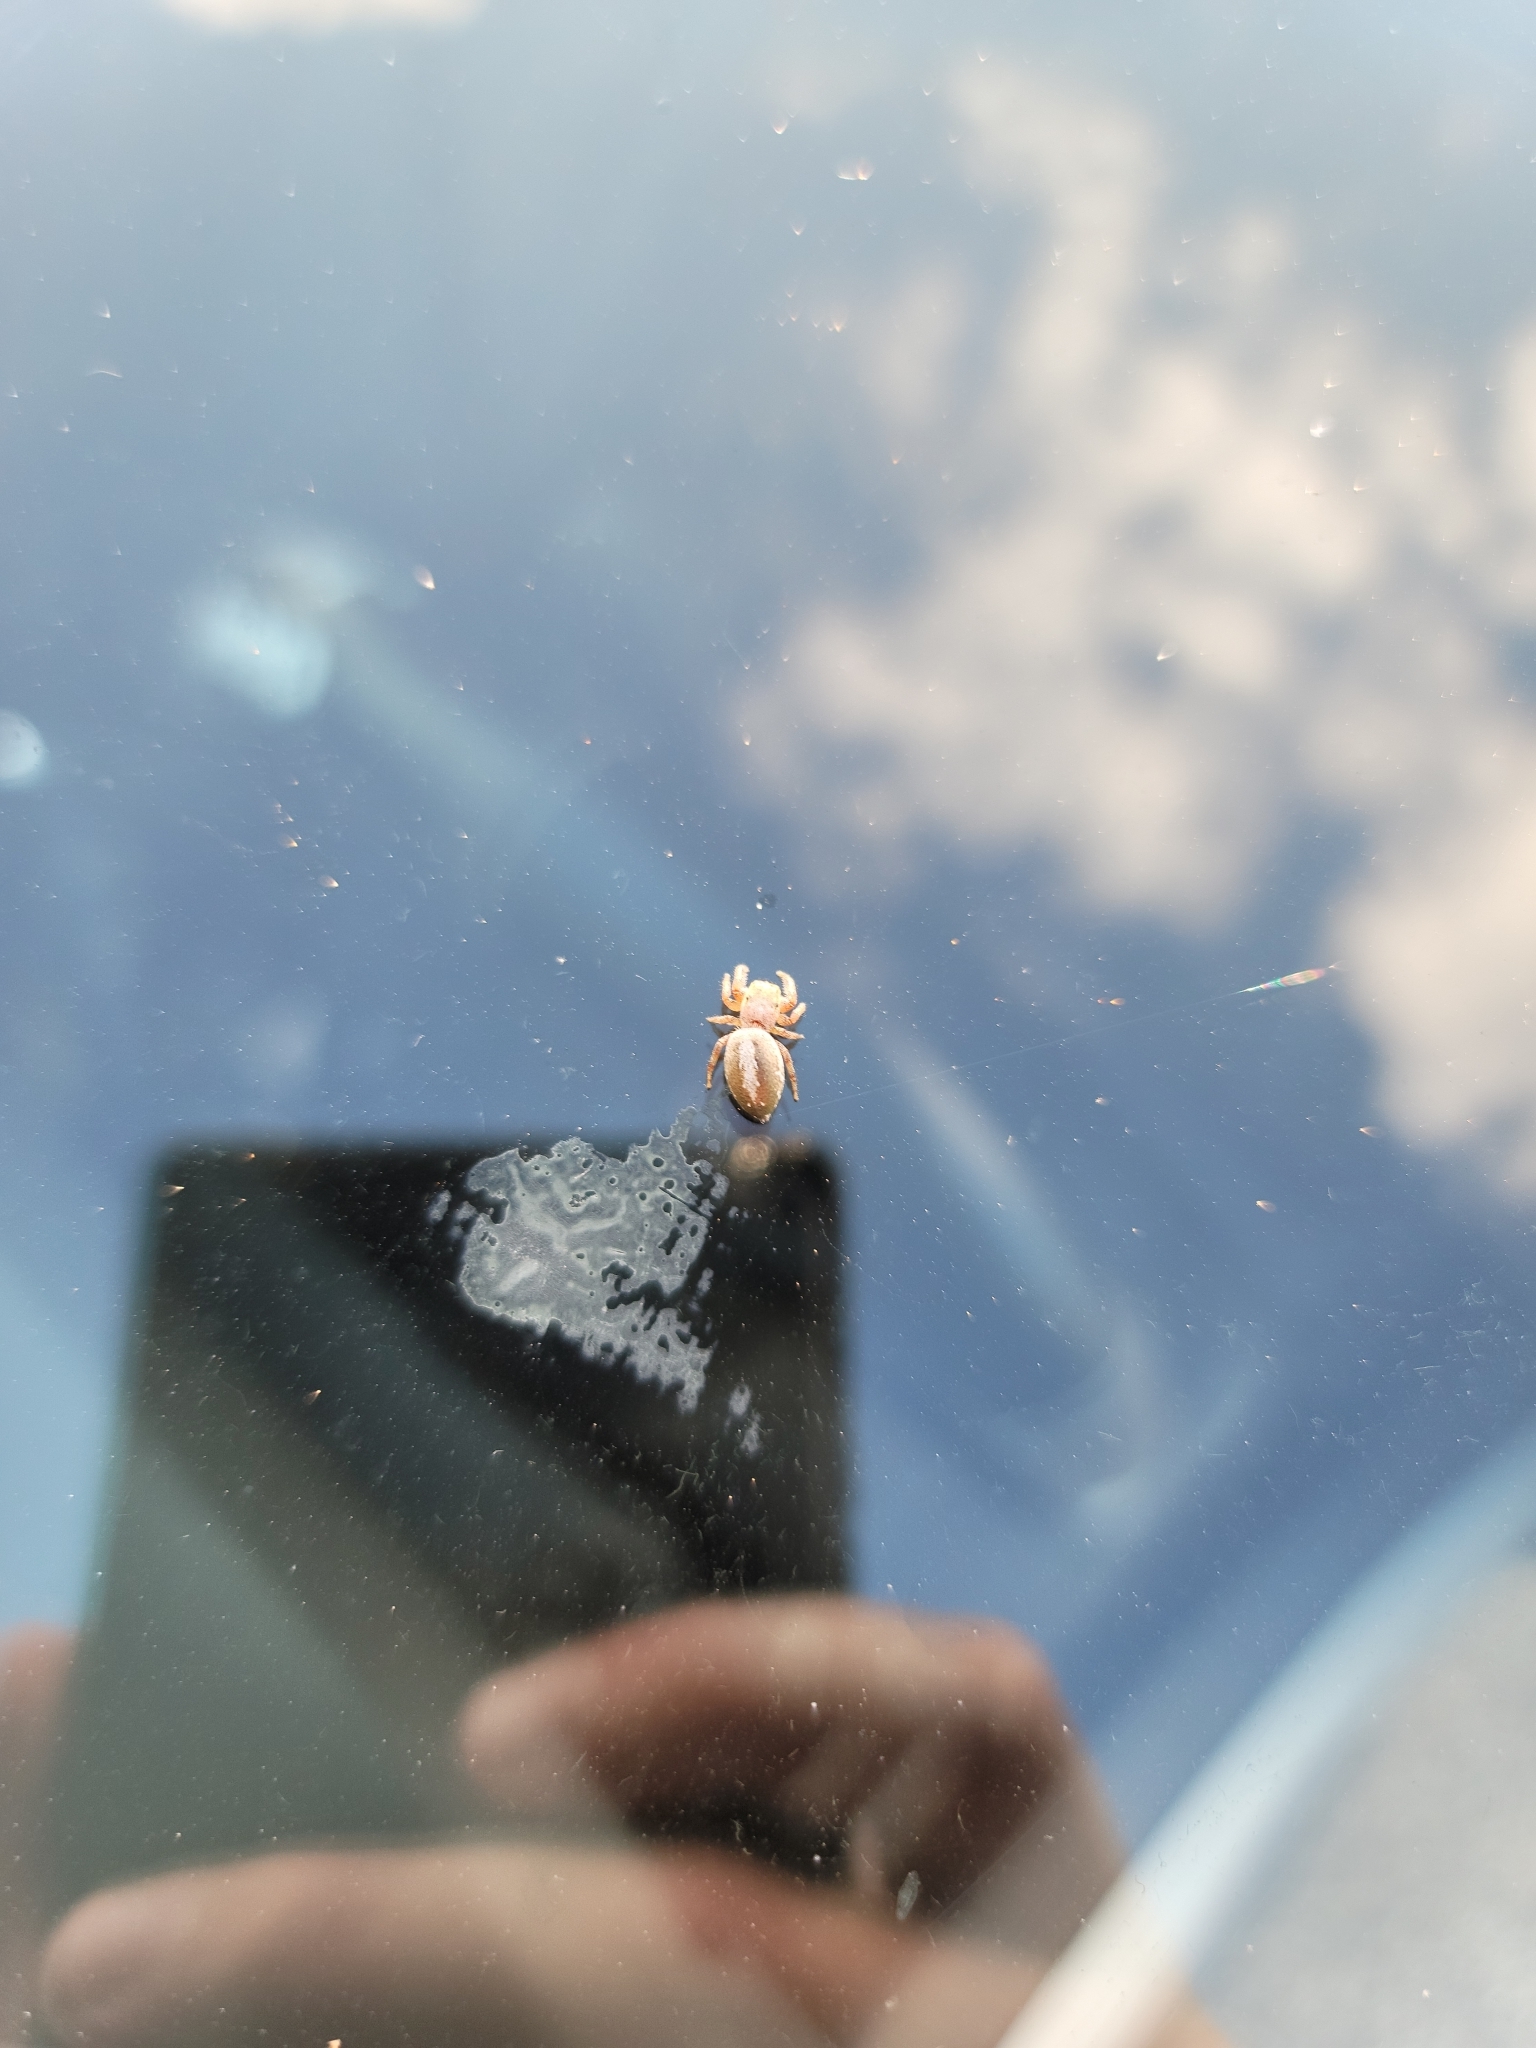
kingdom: Animalia
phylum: Arthropoda
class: Arachnida
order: Araneae
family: Salticidae
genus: Eris
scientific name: Eris floridana
